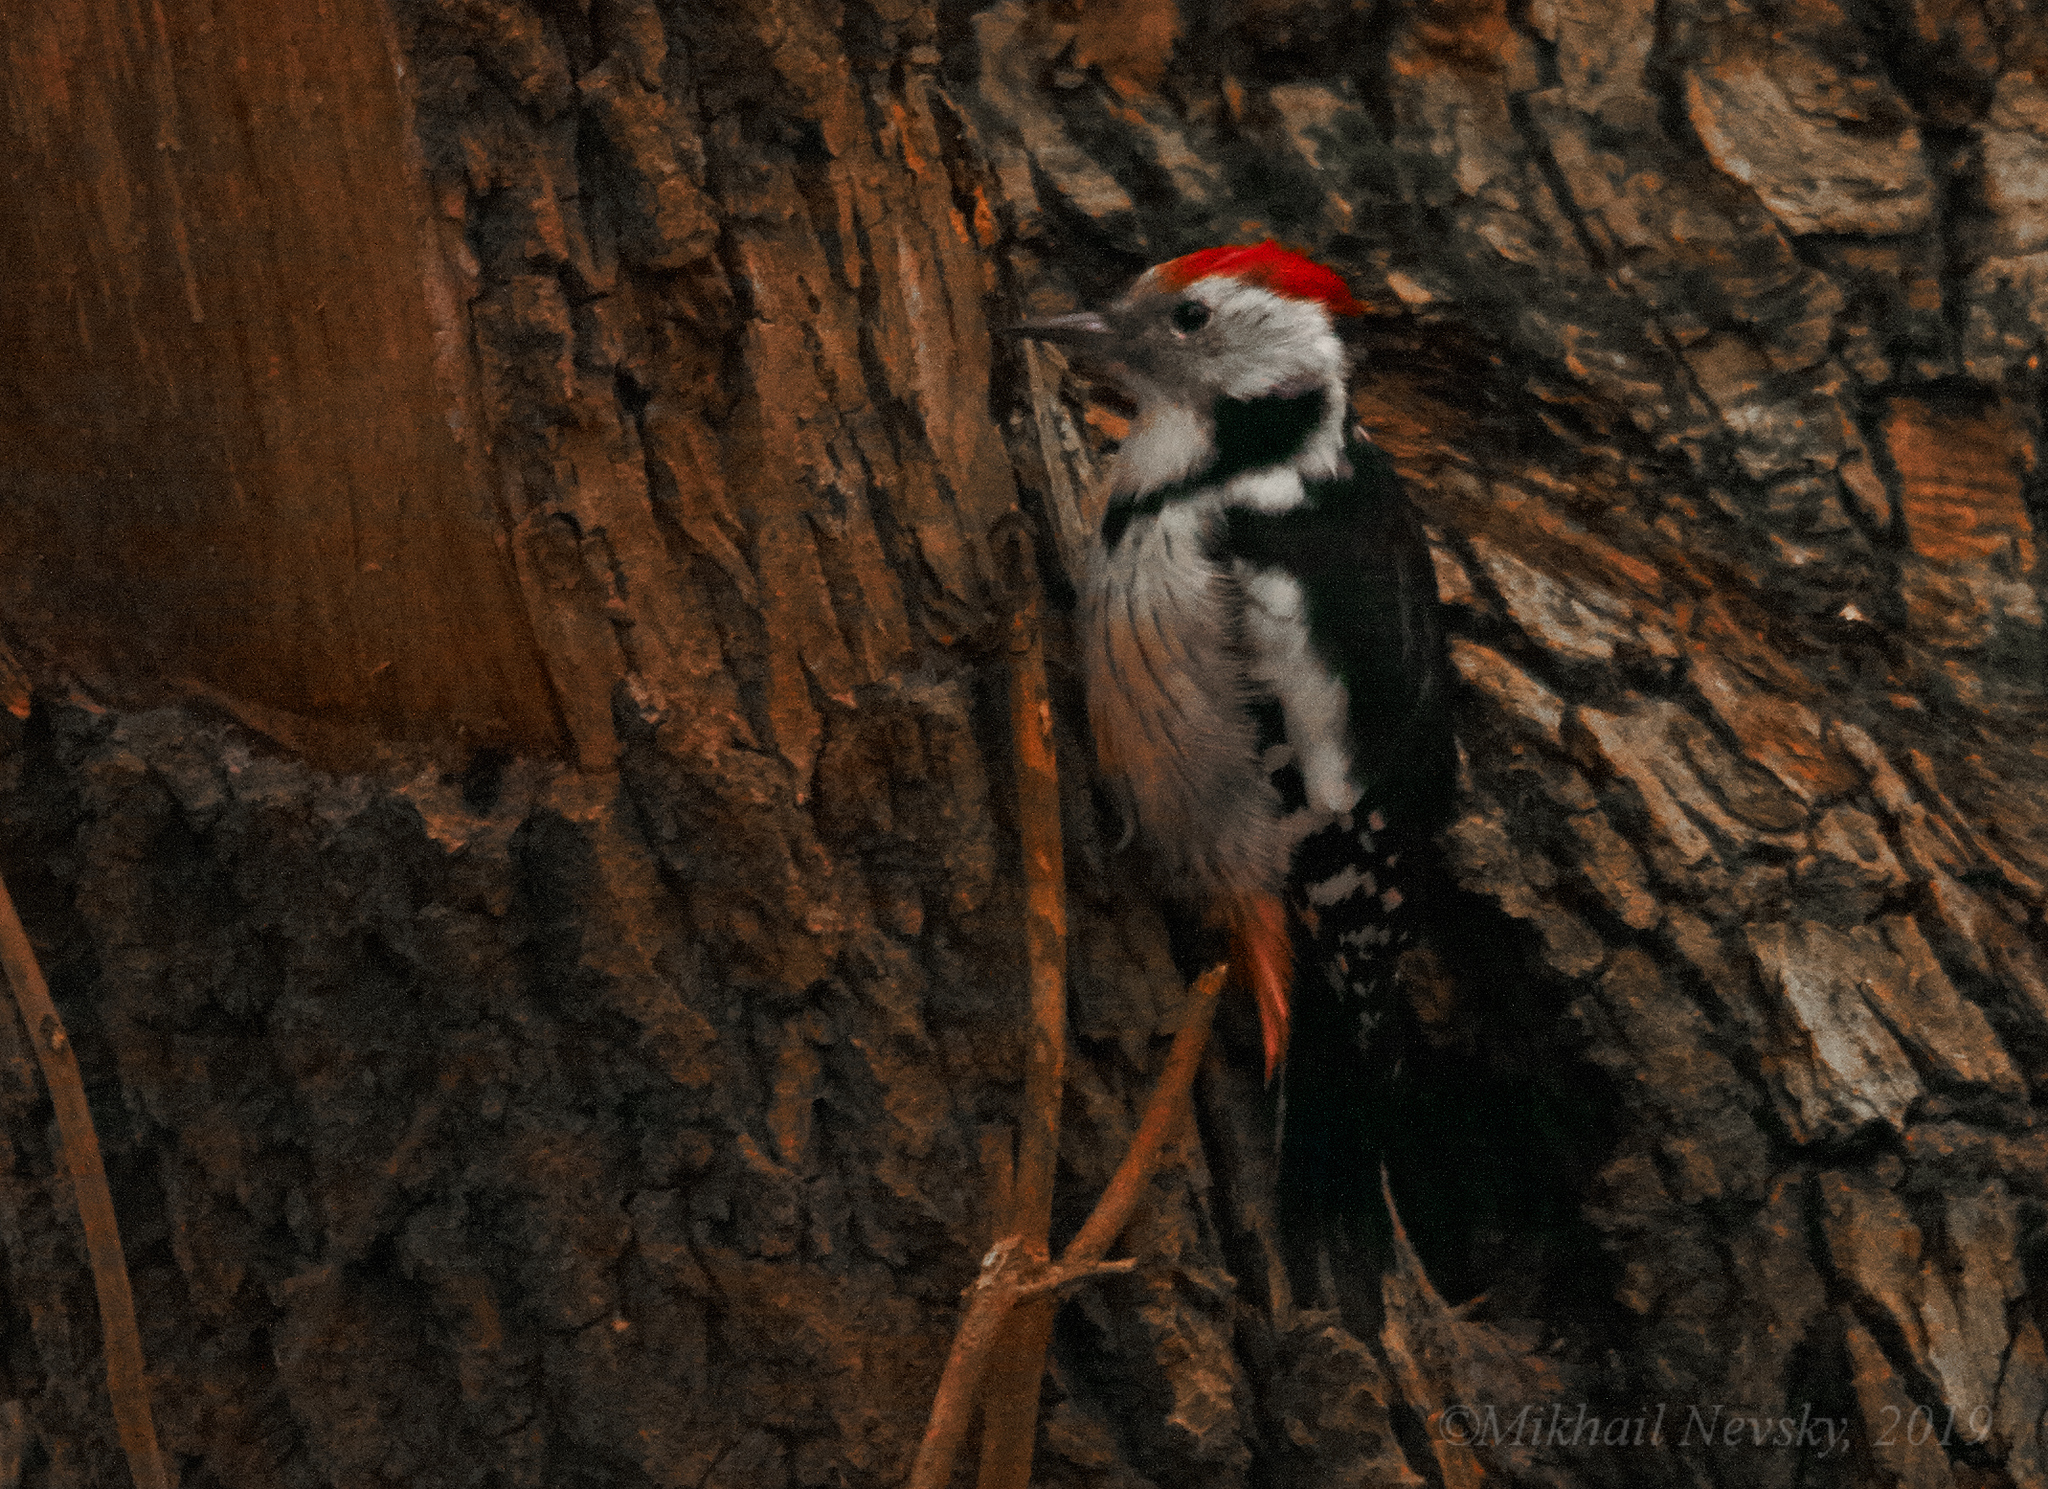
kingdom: Animalia
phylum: Chordata
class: Aves
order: Piciformes
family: Picidae
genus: Dendrocoptes
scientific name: Dendrocoptes medius
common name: Middle spotted woodpecker
